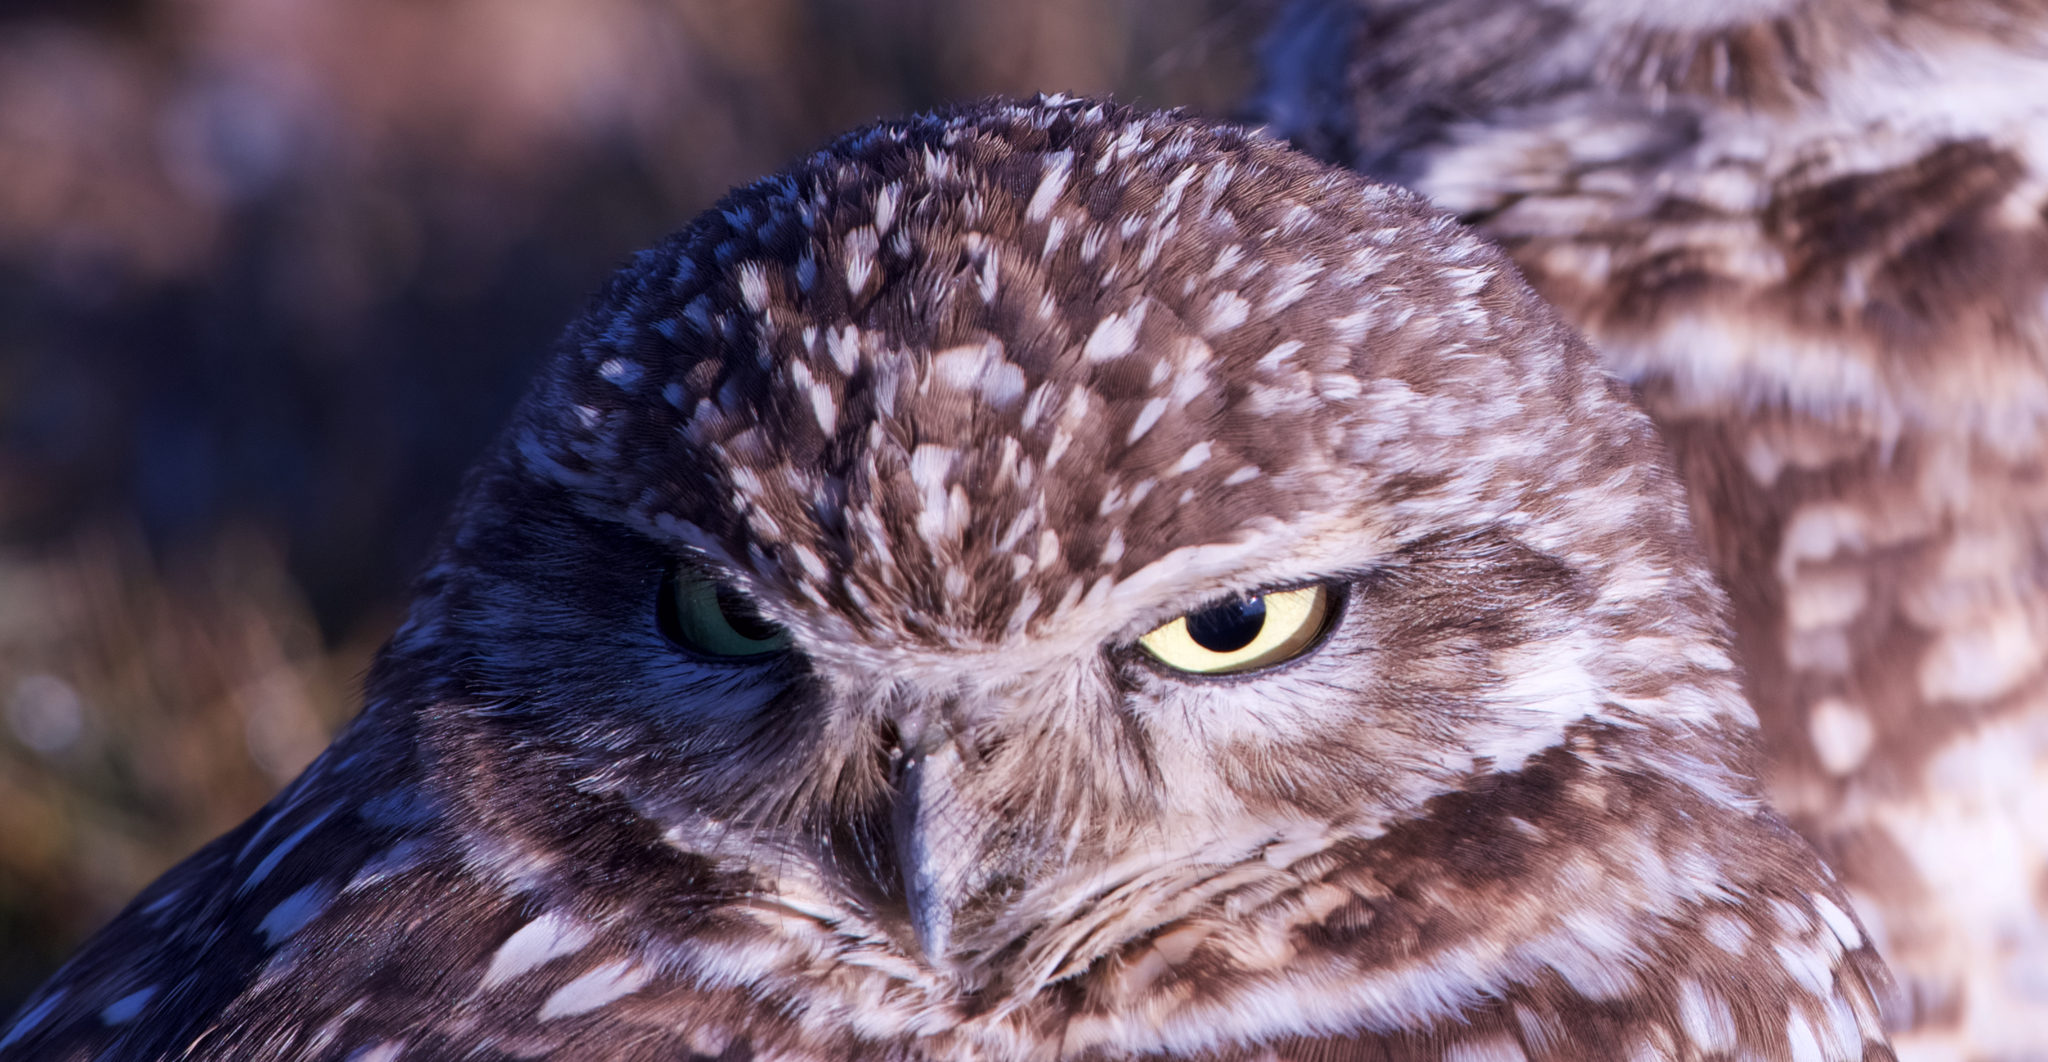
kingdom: Animalia
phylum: Chordata
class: Aves
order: Strigiformes
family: Strigidae
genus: Athene
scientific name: Athene cunicularia
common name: Burrowing owl
